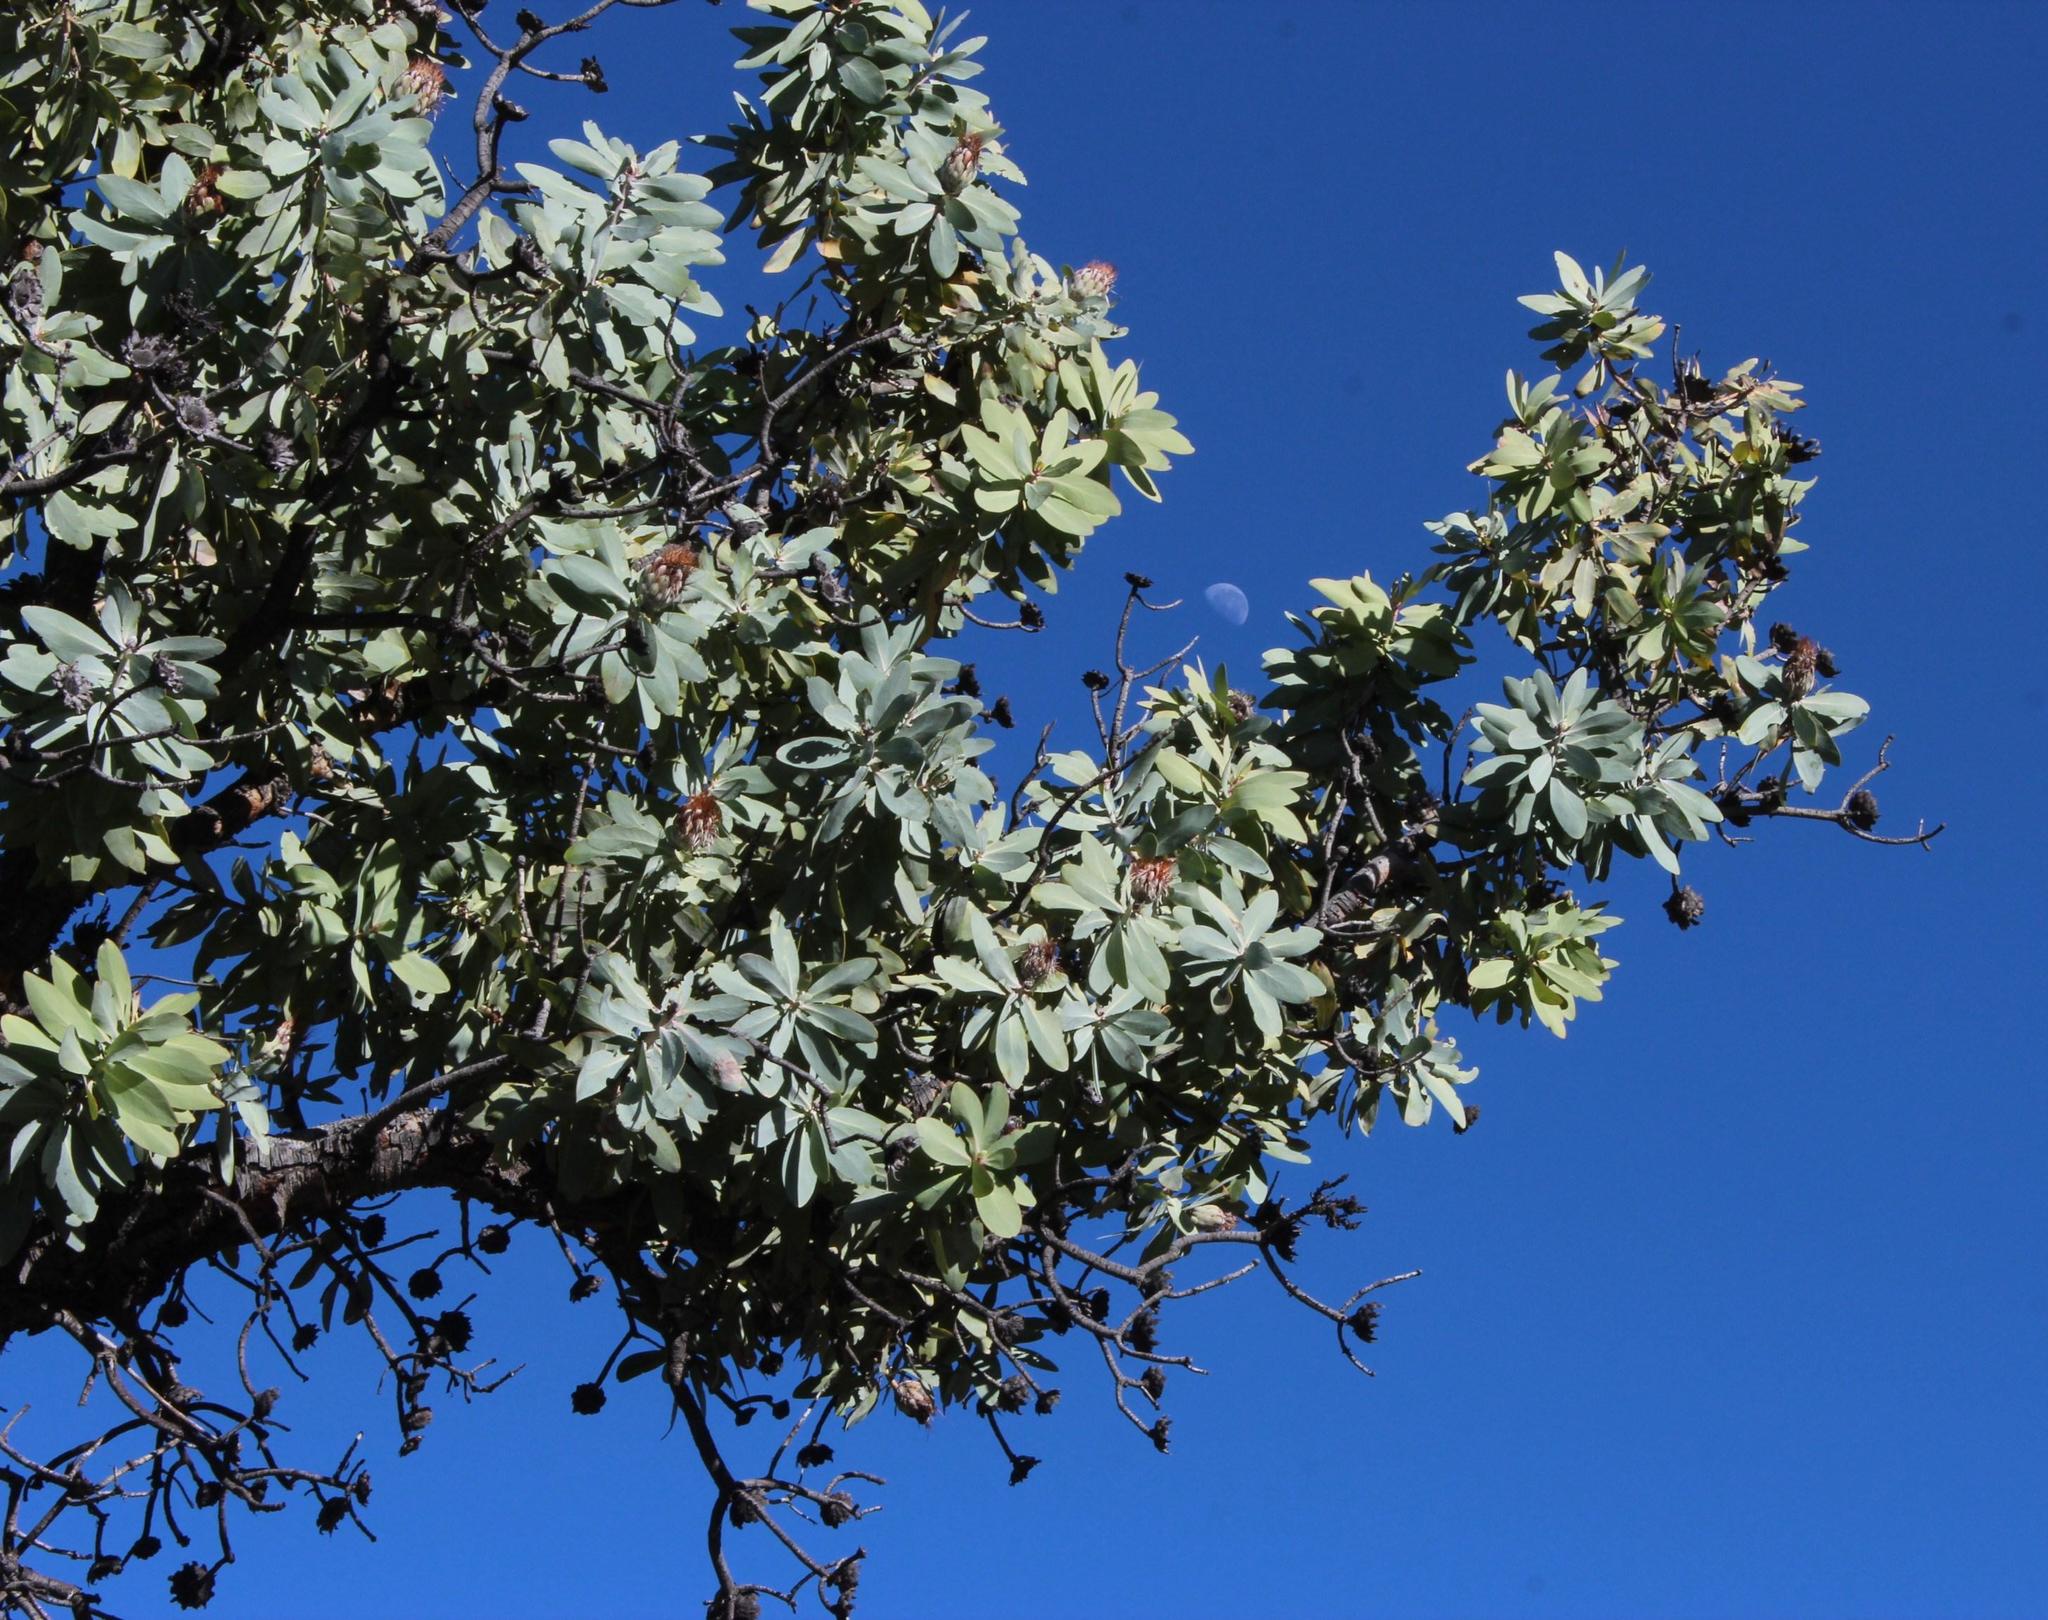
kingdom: Plantae
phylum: Tracheophyta
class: Magnoliopsida
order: Proteales
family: Proteaceae
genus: Protea
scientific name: Protea nitida
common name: Tree protea
